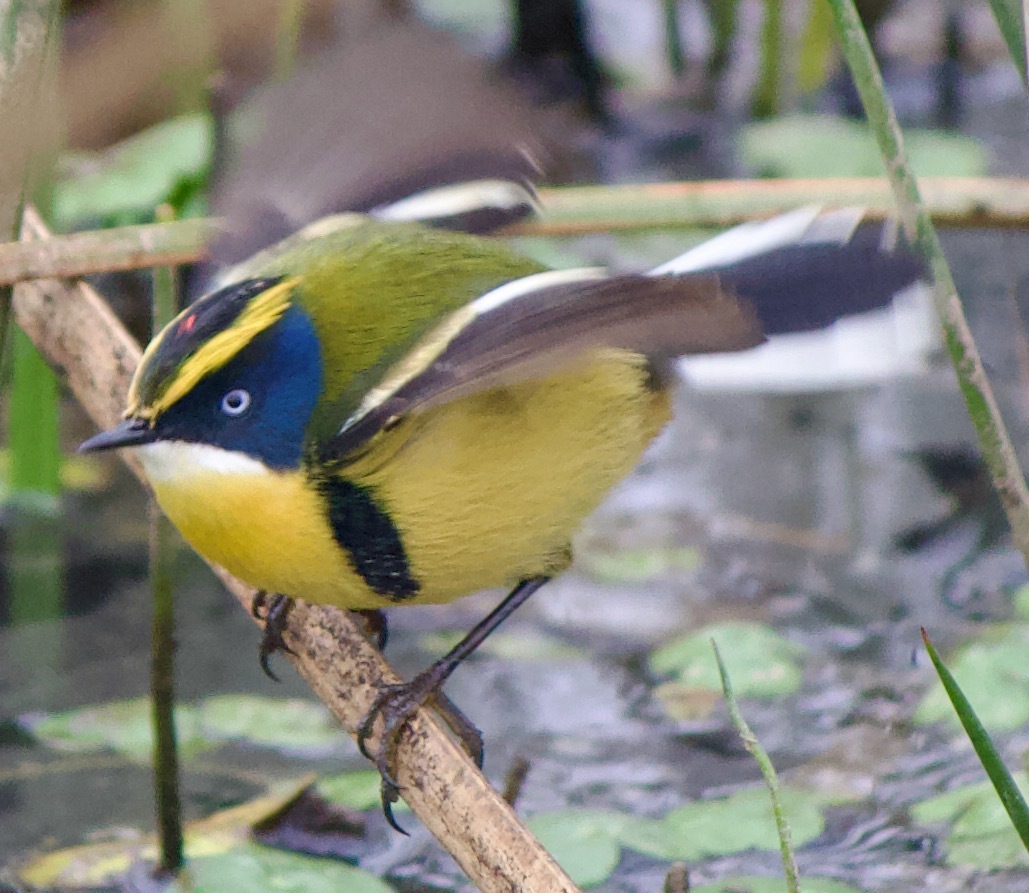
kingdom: Animalia
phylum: Chordata
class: Aves
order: Passeriformes
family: Tyrannidae
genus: Tachuris
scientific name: Tachuris rubrigastra
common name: Many-colored rush tyrant
